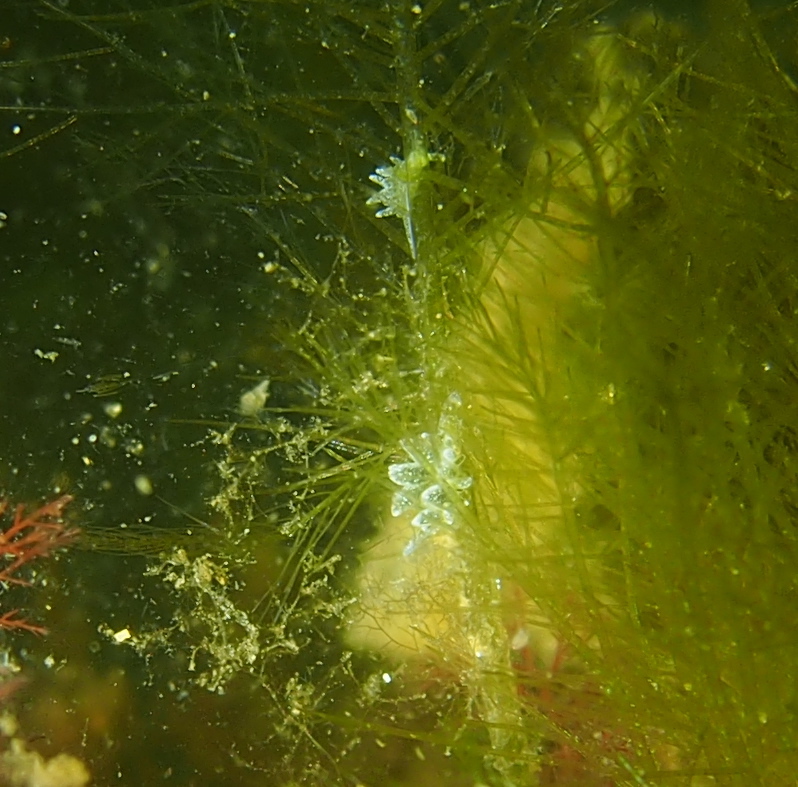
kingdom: Animalia
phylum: Mollusca
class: Gastropoda
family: Limapontiidae
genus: Placida
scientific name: Placida dendritica
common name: Dendritic nudibranch
